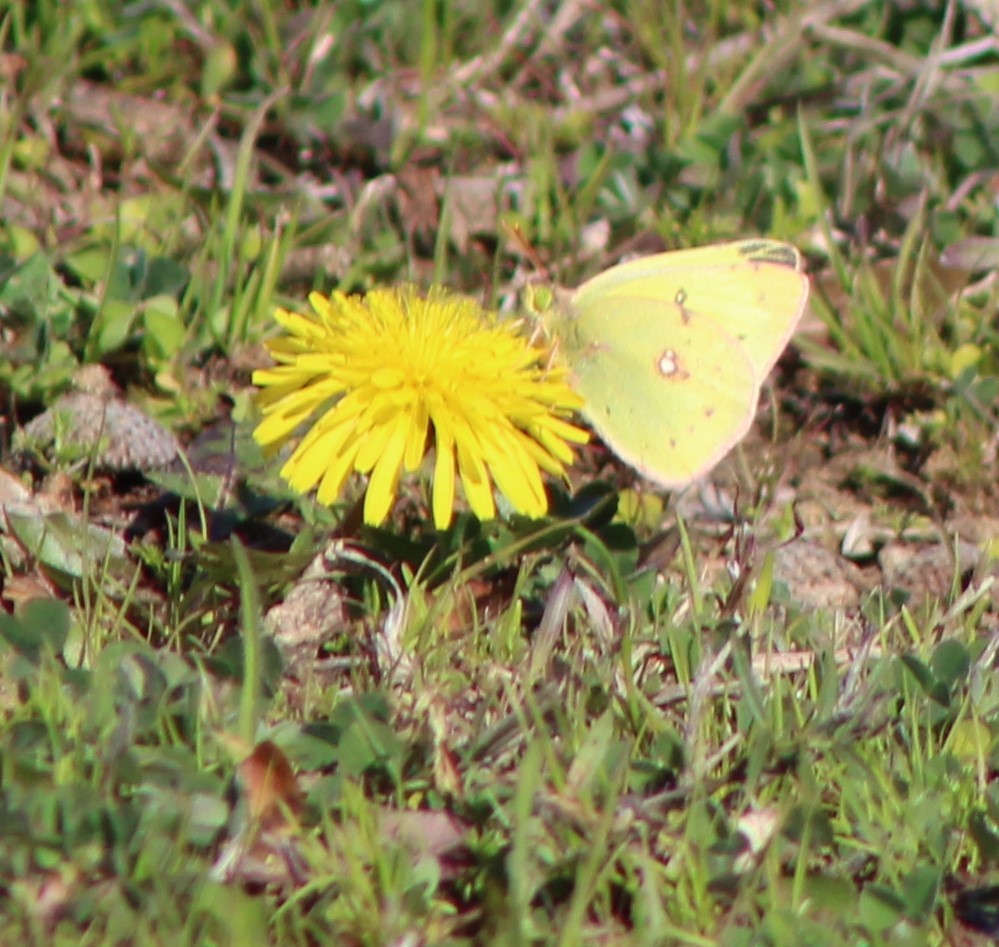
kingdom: Animalia
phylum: Arthropoda
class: Insecta
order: Lepidoptera
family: Pieridae
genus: Colias
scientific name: Colias eurytheme
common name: Alfalfa butterfly
